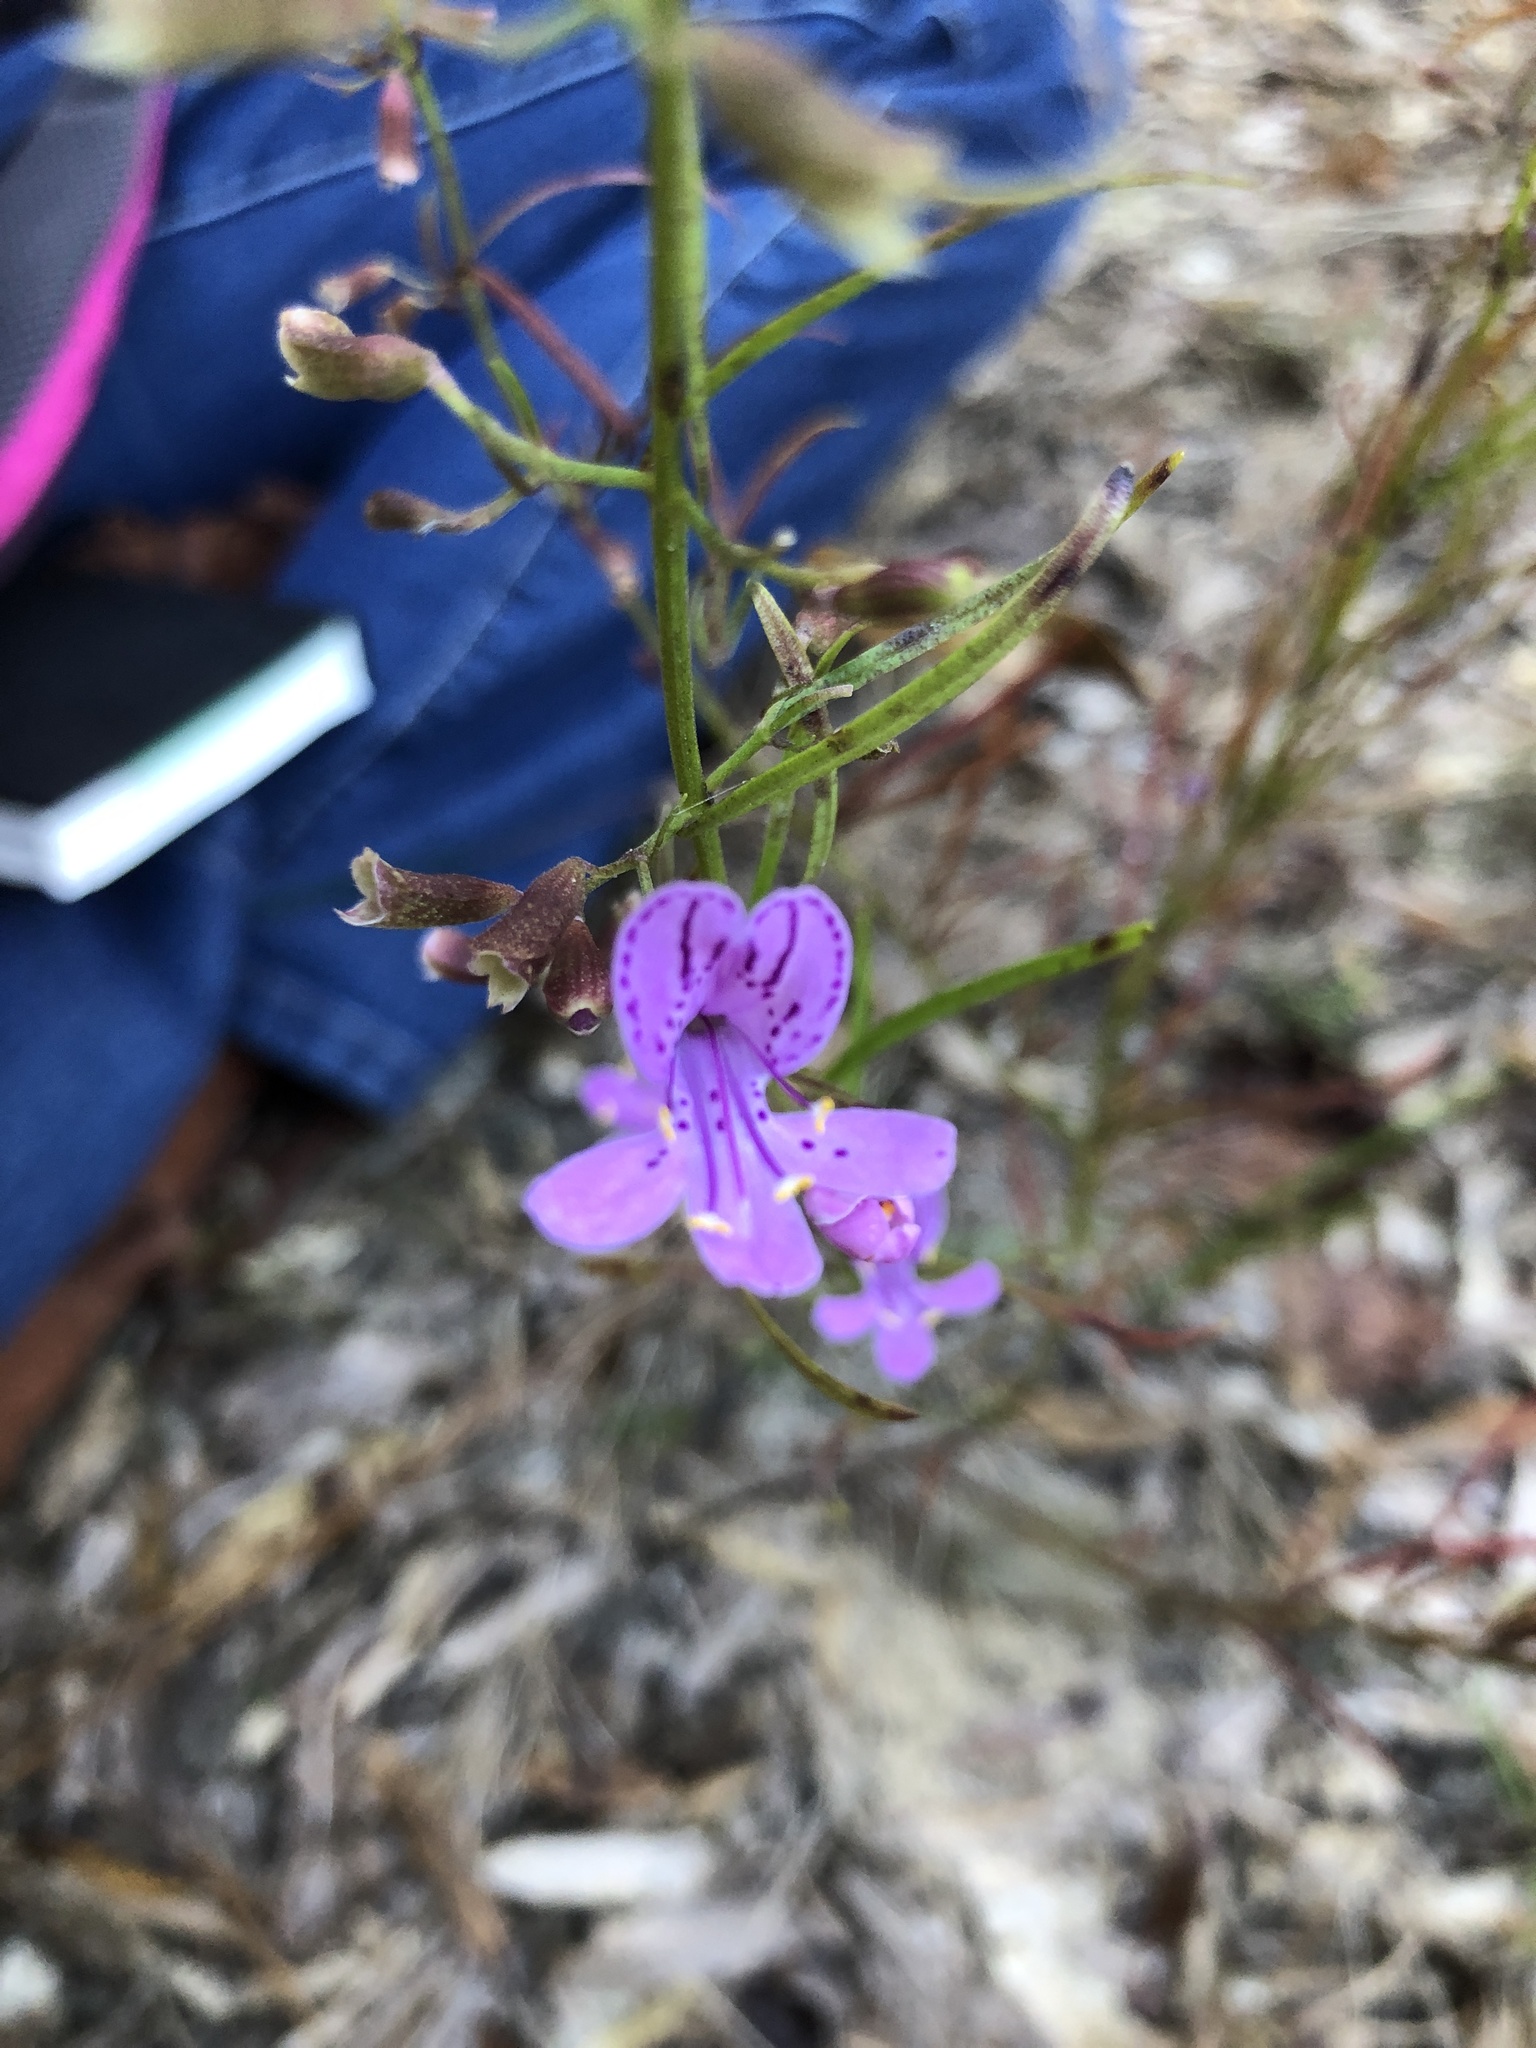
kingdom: Plantae
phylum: Tracheophyta
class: Magnoliopsida
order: Lamiales
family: Lamiaceae
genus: Dicerandra
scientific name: Dicerandra fumella
